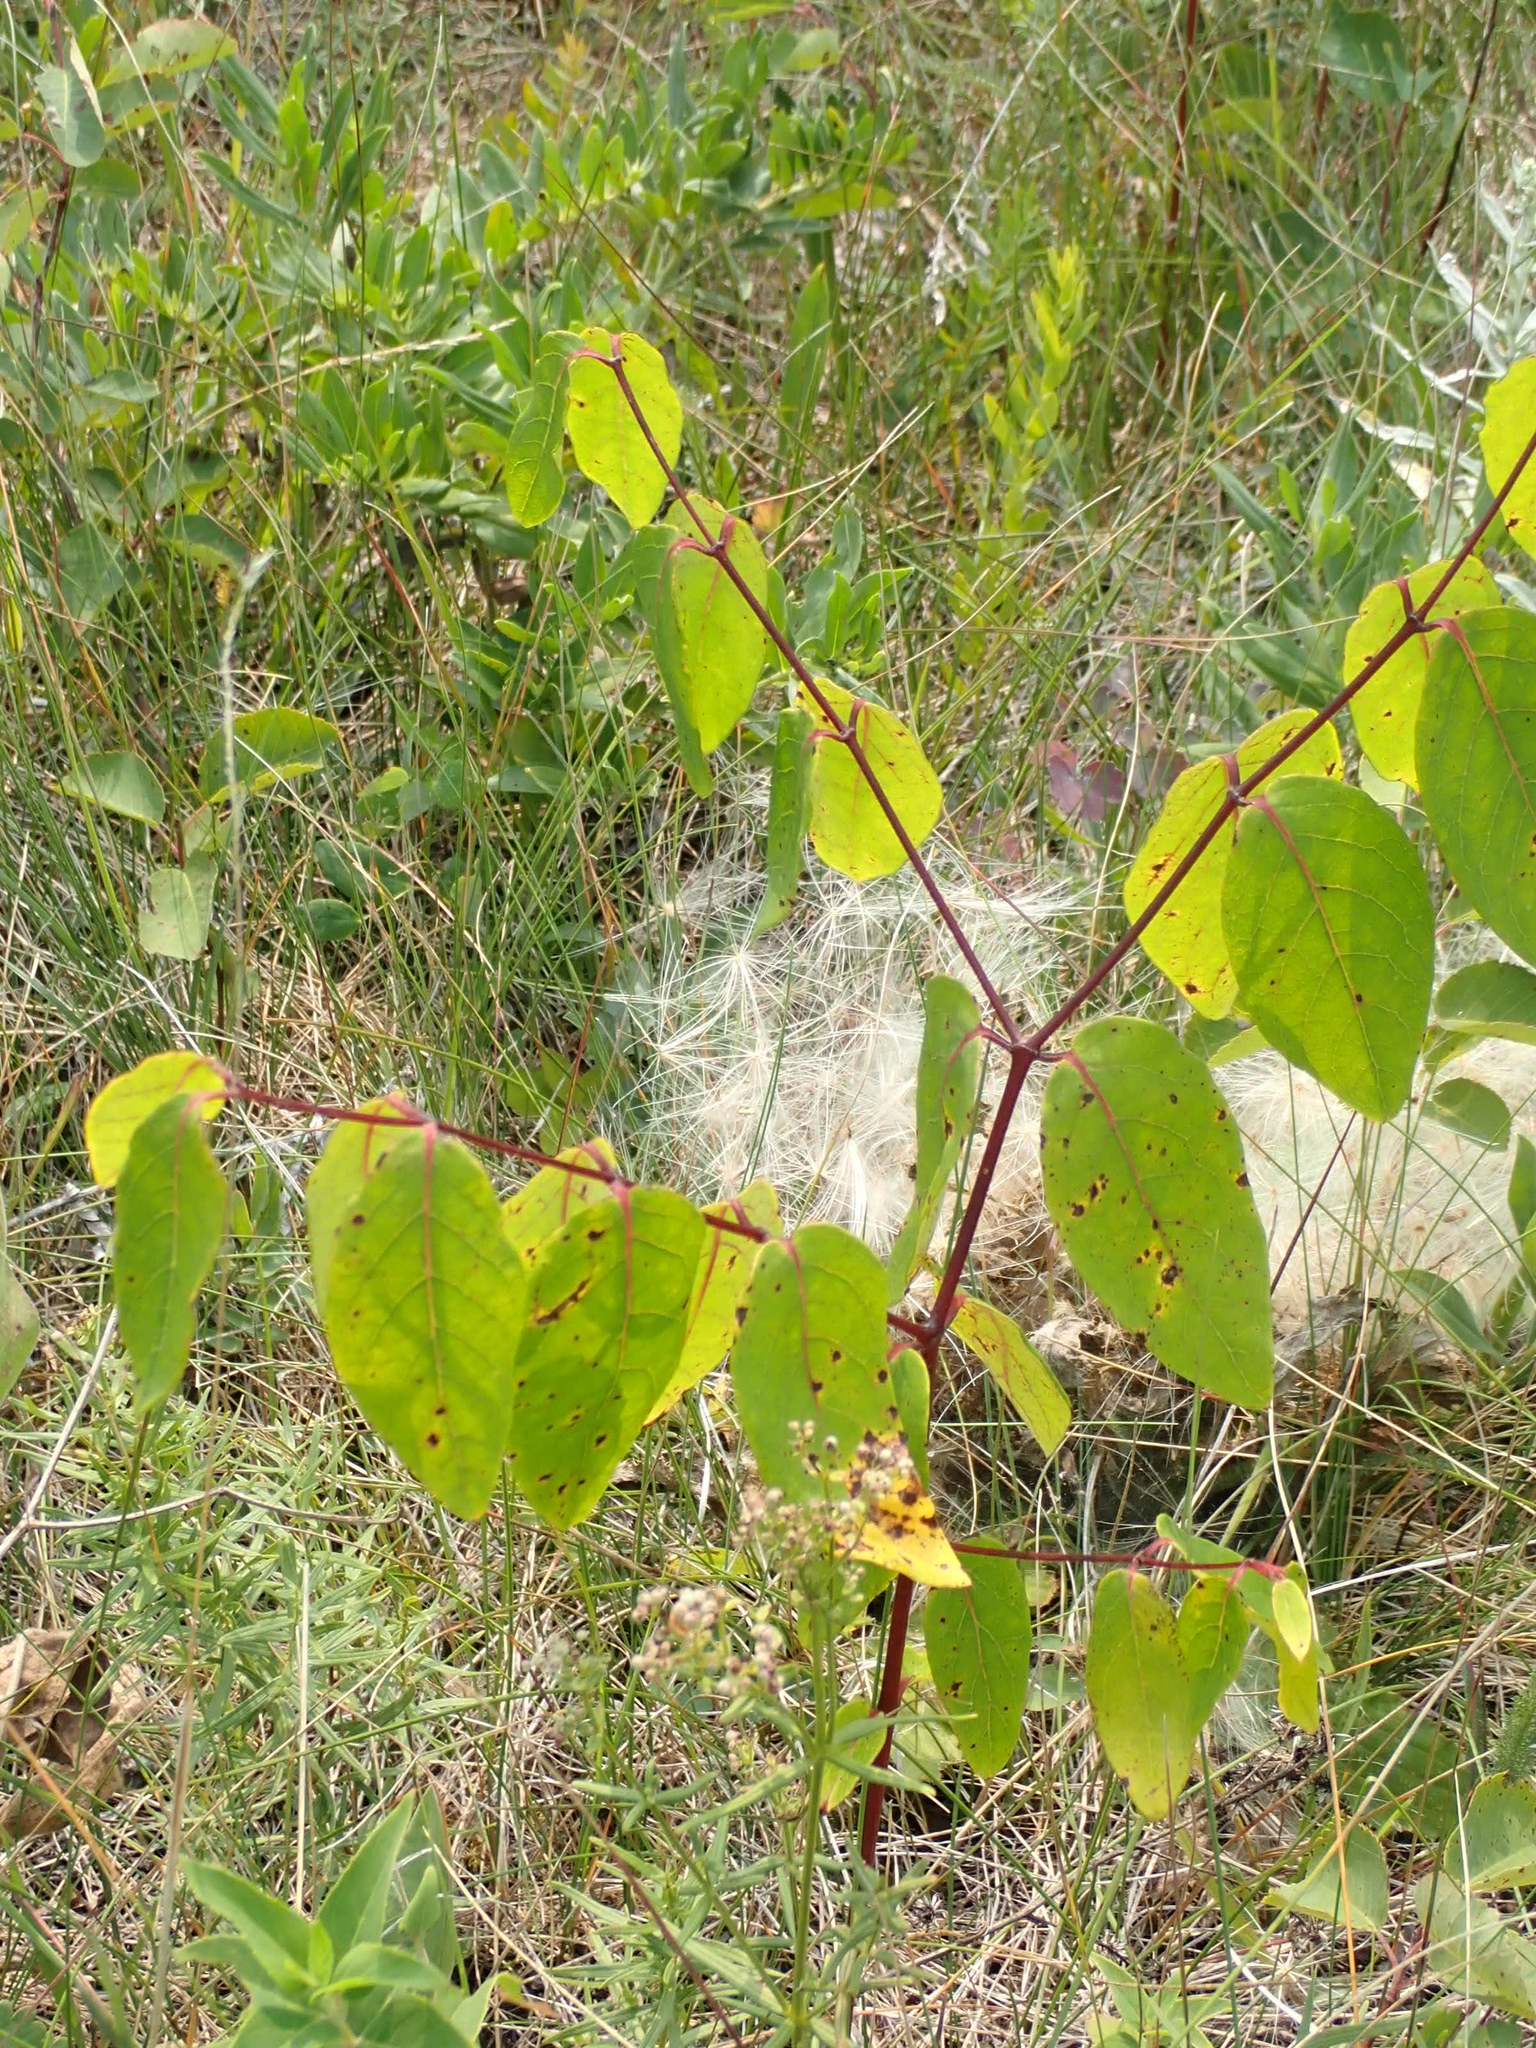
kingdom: Plantae
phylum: Tracheophyta
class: Magnoliopsida
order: Gentianales
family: Apocynaceae
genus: Apocynum
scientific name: Apocynum androsaemifolium
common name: Spreading dogbane
